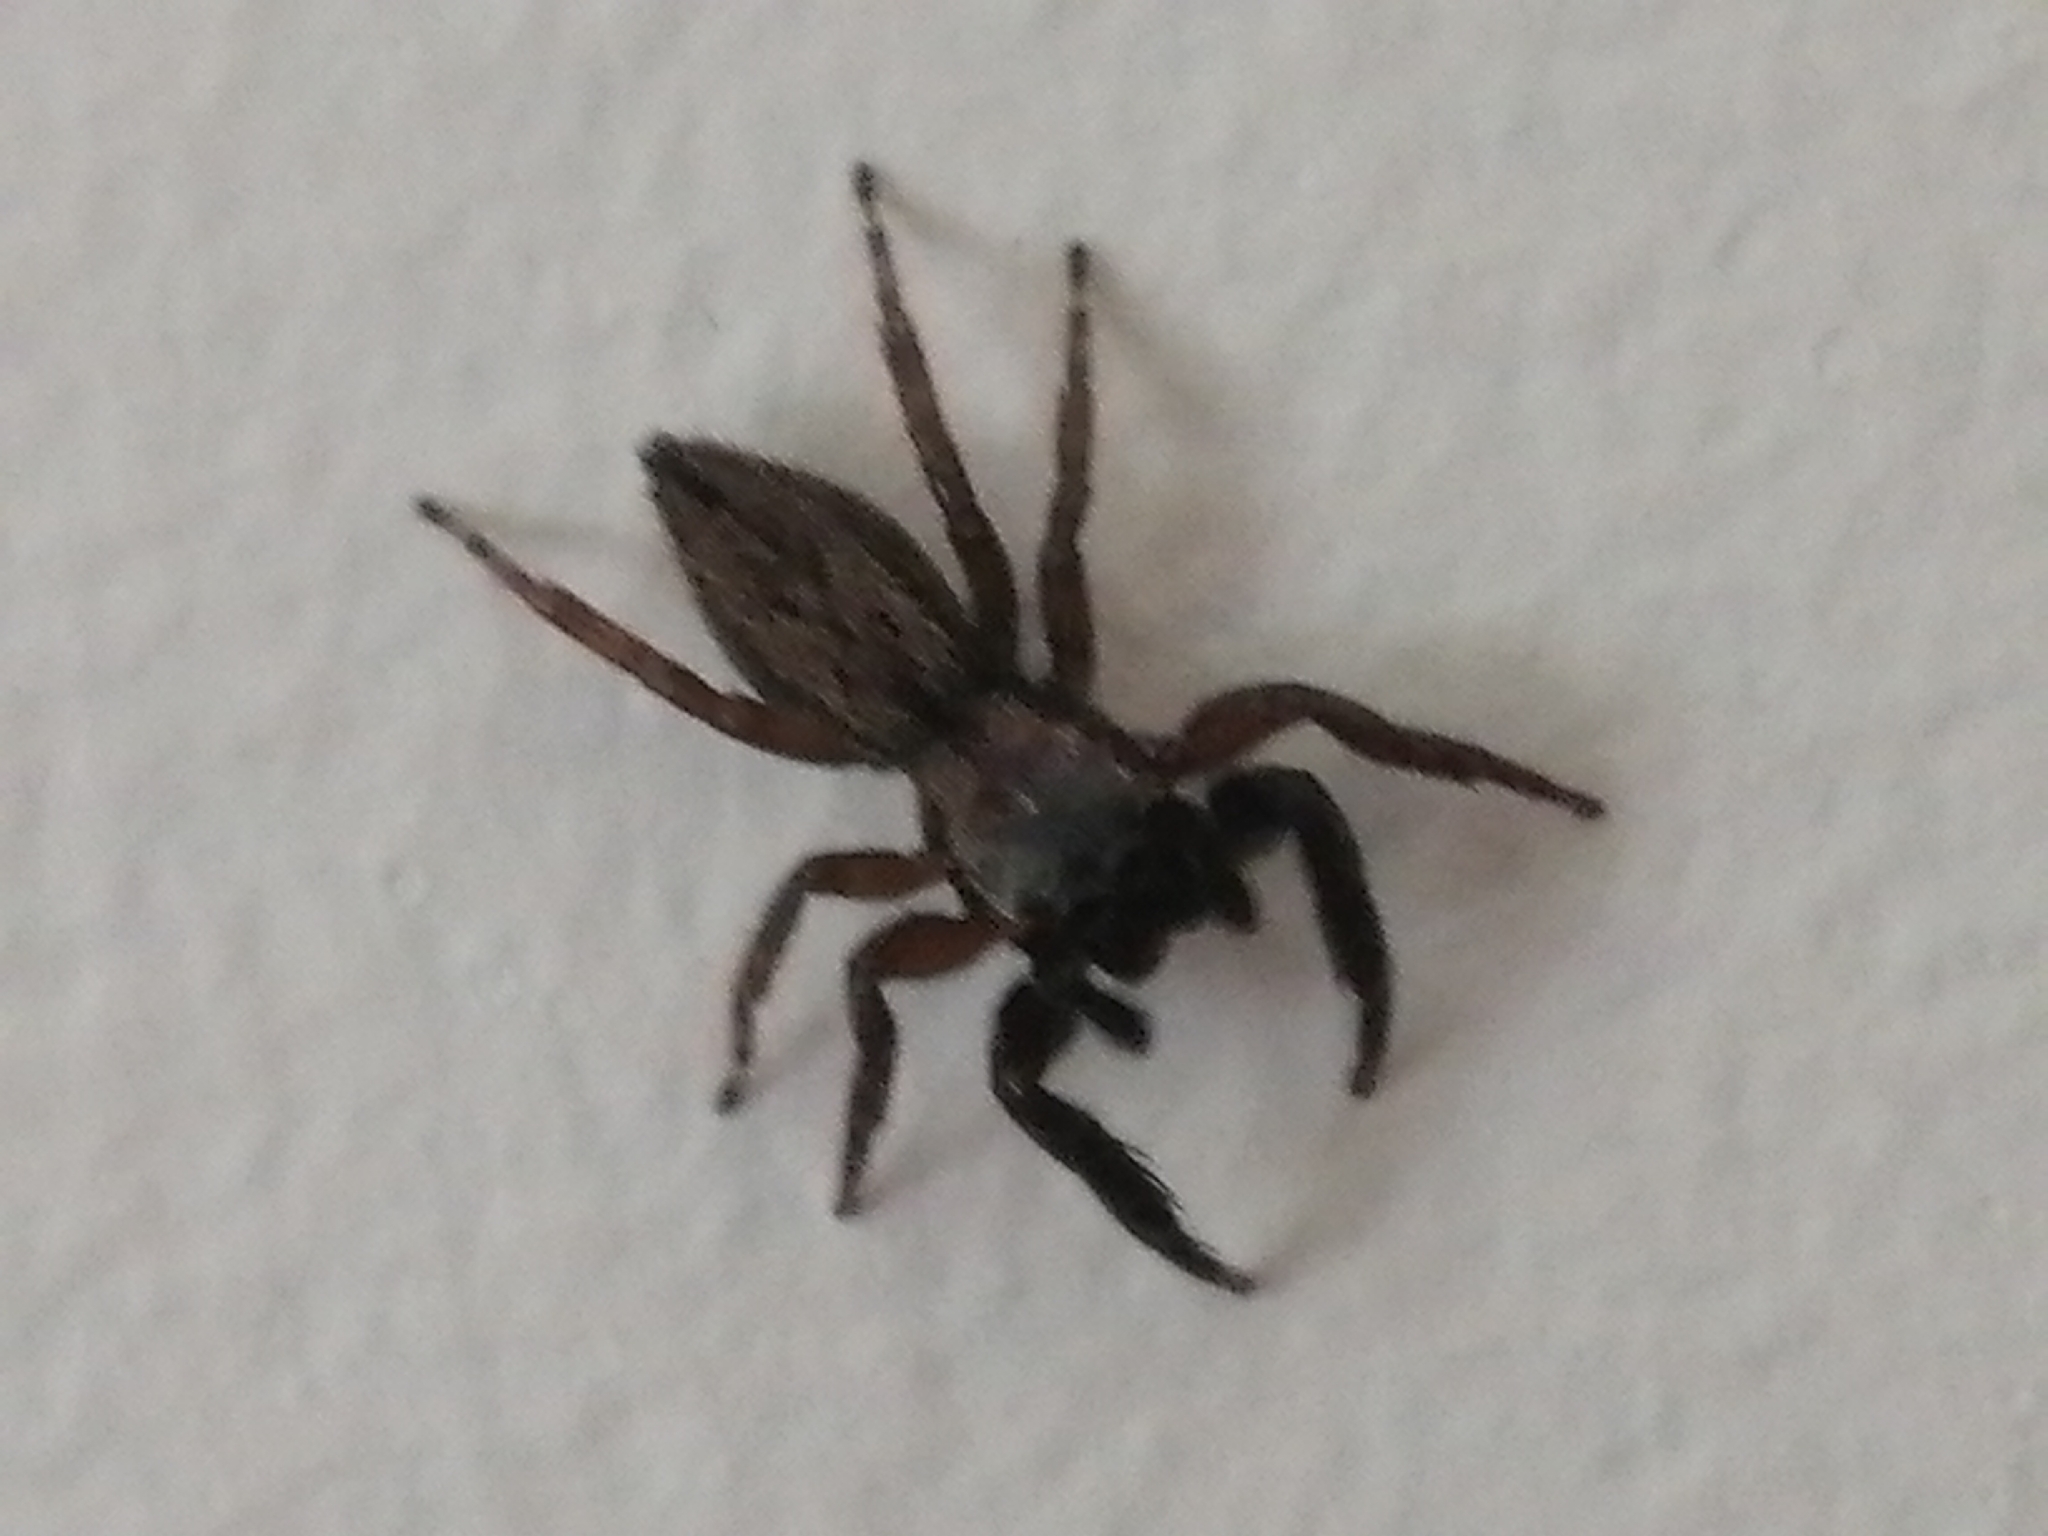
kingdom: Animalia
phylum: Arthropoda
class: Arachnida
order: Araneae
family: Salticidae
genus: Trite
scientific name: Trite auricoma
